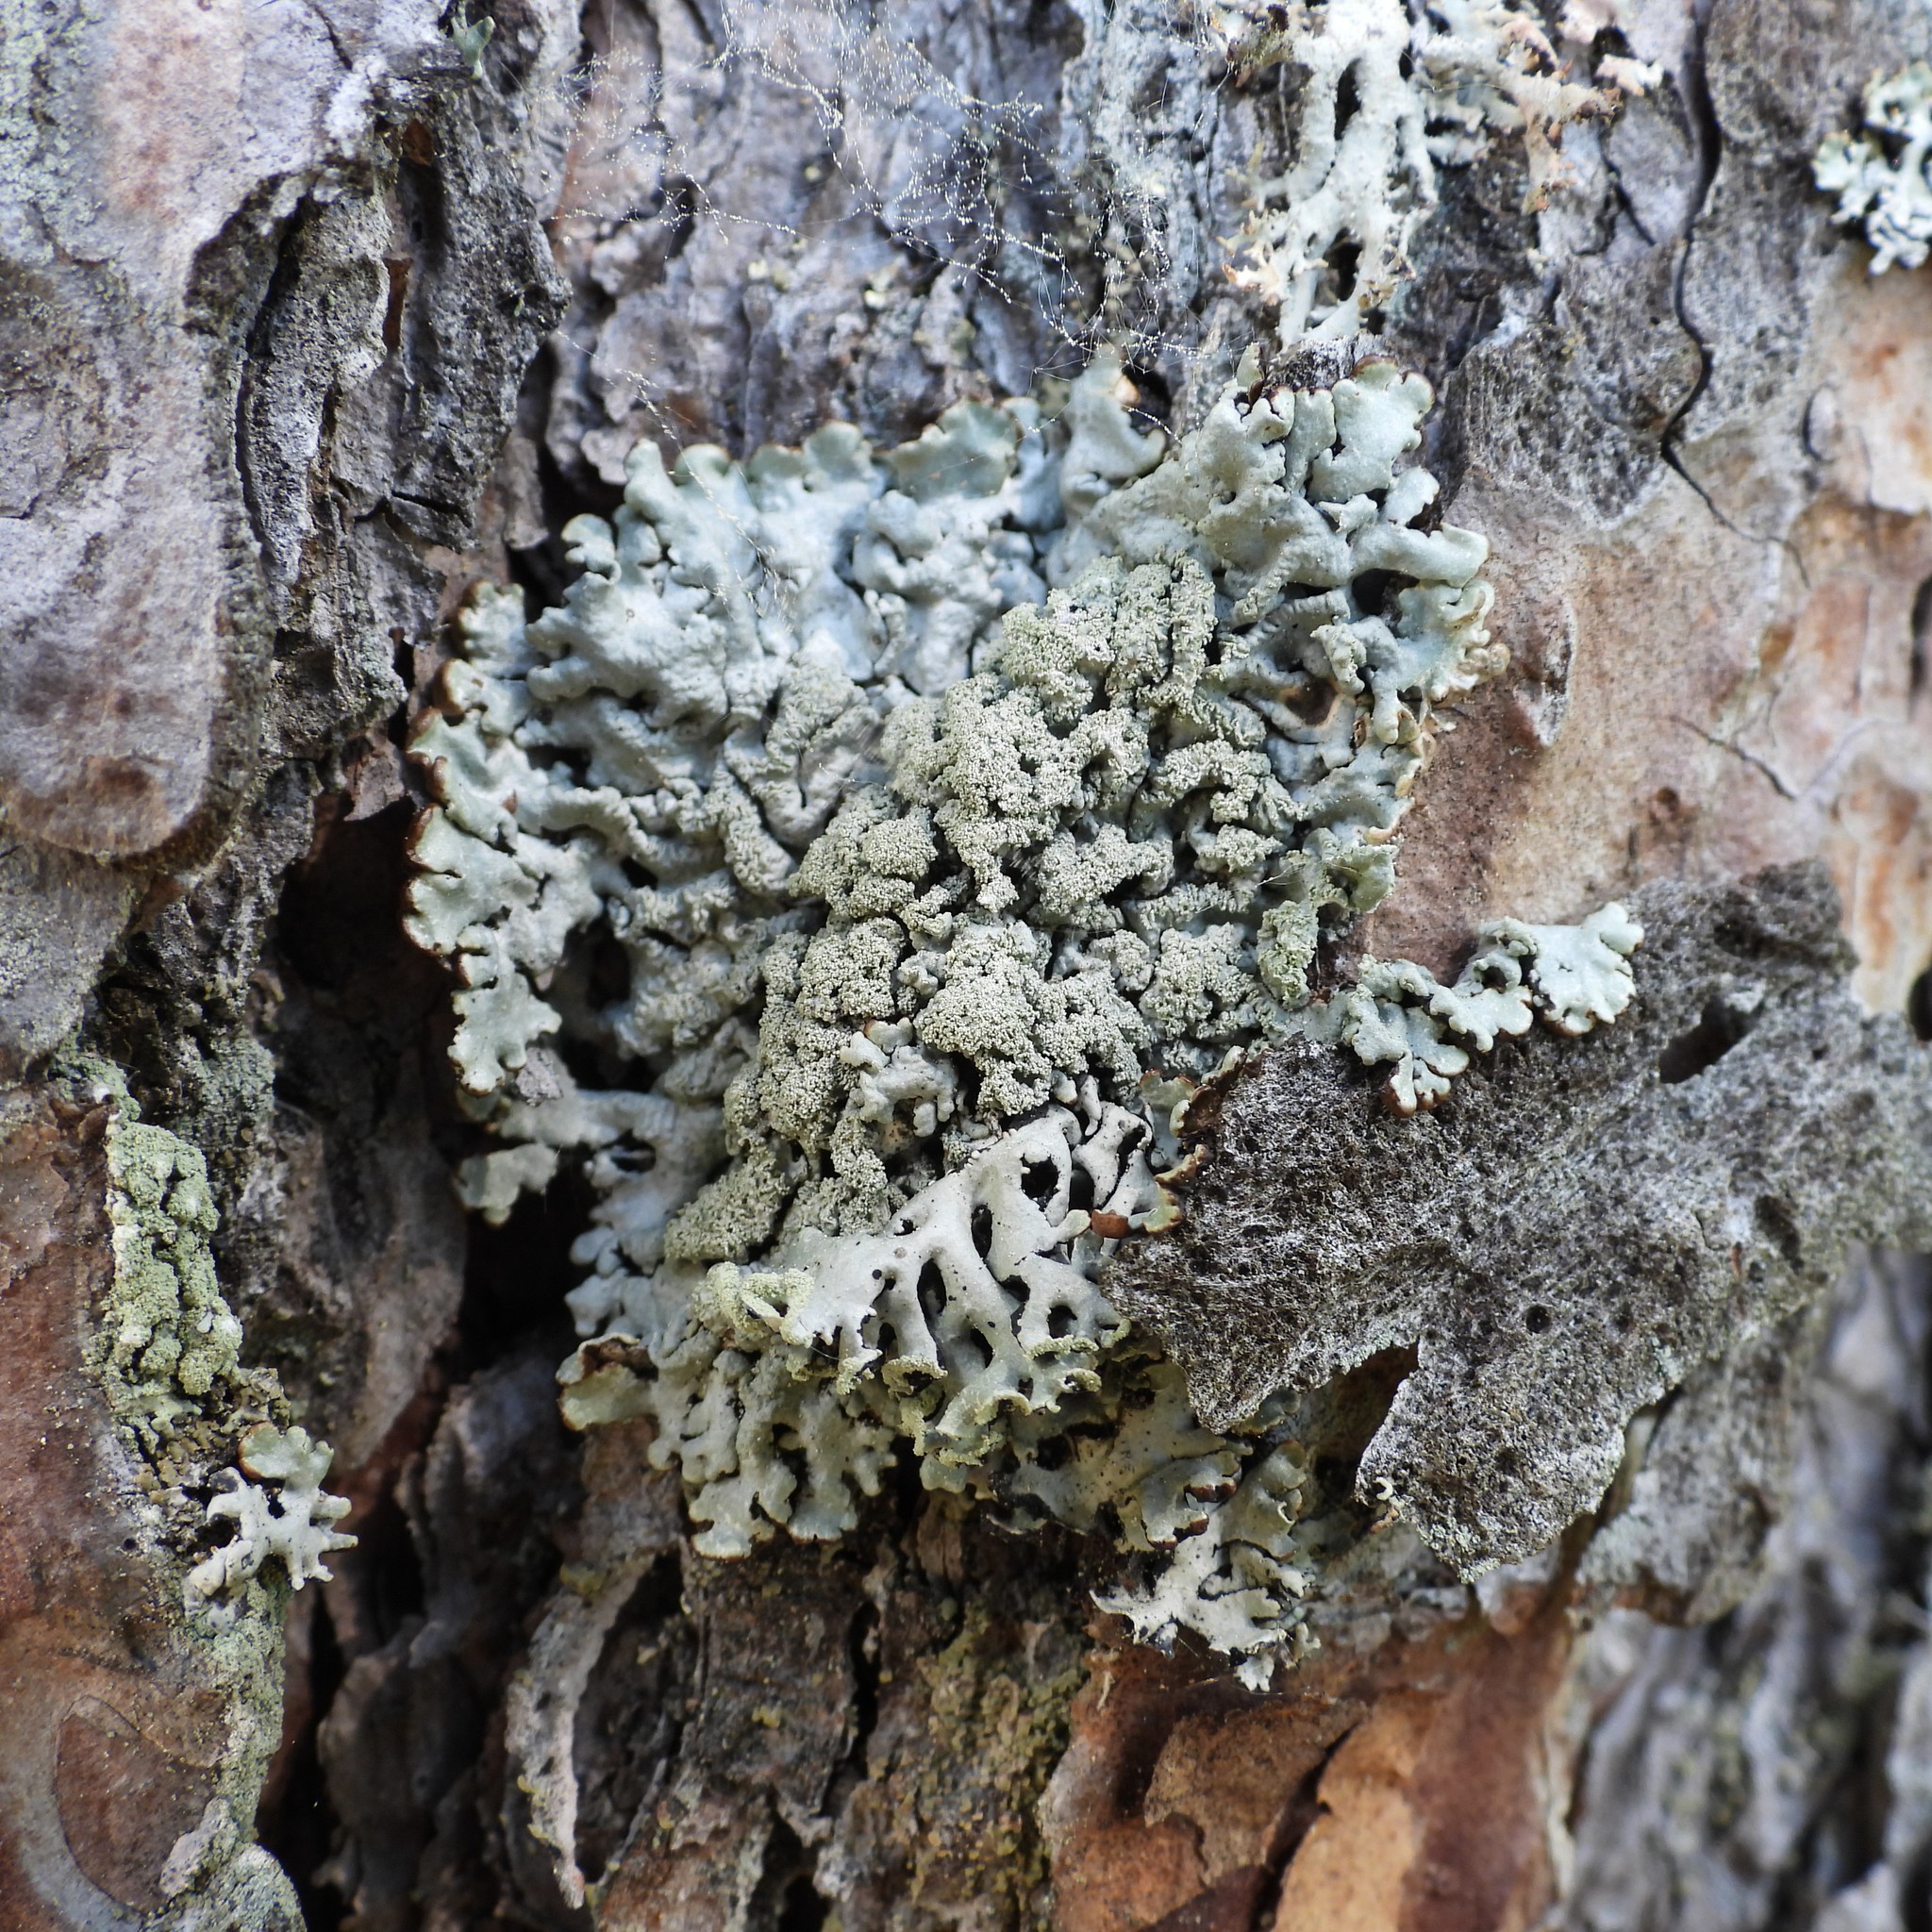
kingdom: Fungi
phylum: Ascomycota
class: Lecanoromycetes
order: Lecanorales
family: Parmeliaceae
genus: Hypogymnia
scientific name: Hypogymnia farinacea
